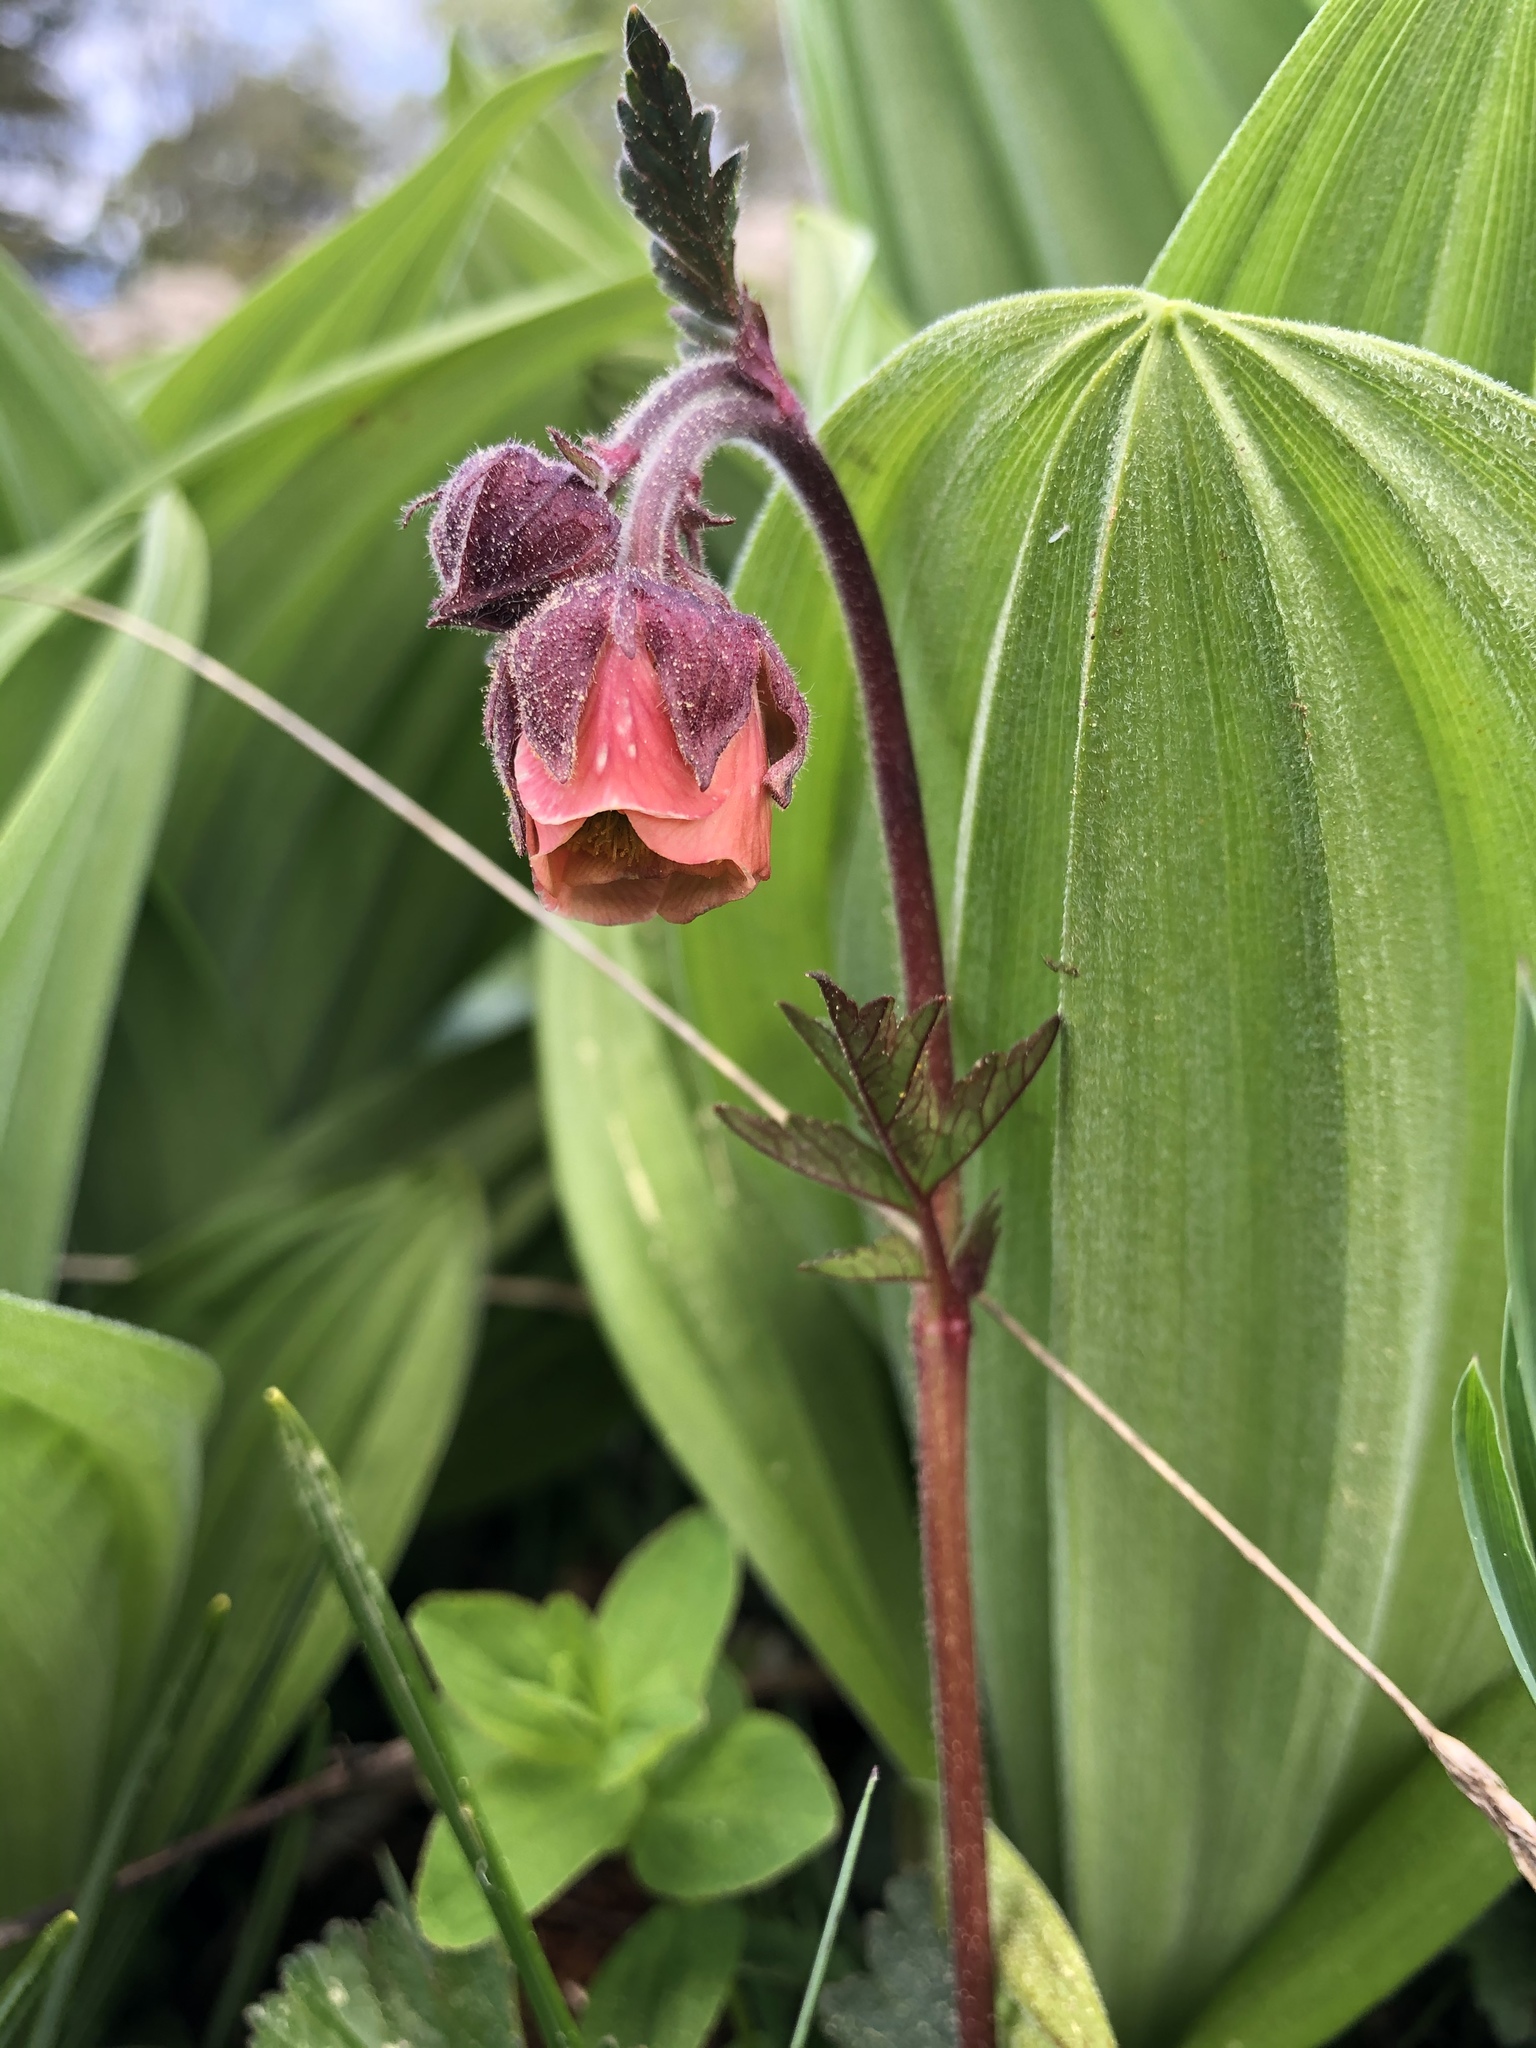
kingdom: Plantae
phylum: Tracheophyta
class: Magnoliopsida
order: Rosales
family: Rosaceae
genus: Geum
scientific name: Geum rivale
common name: Water avens
